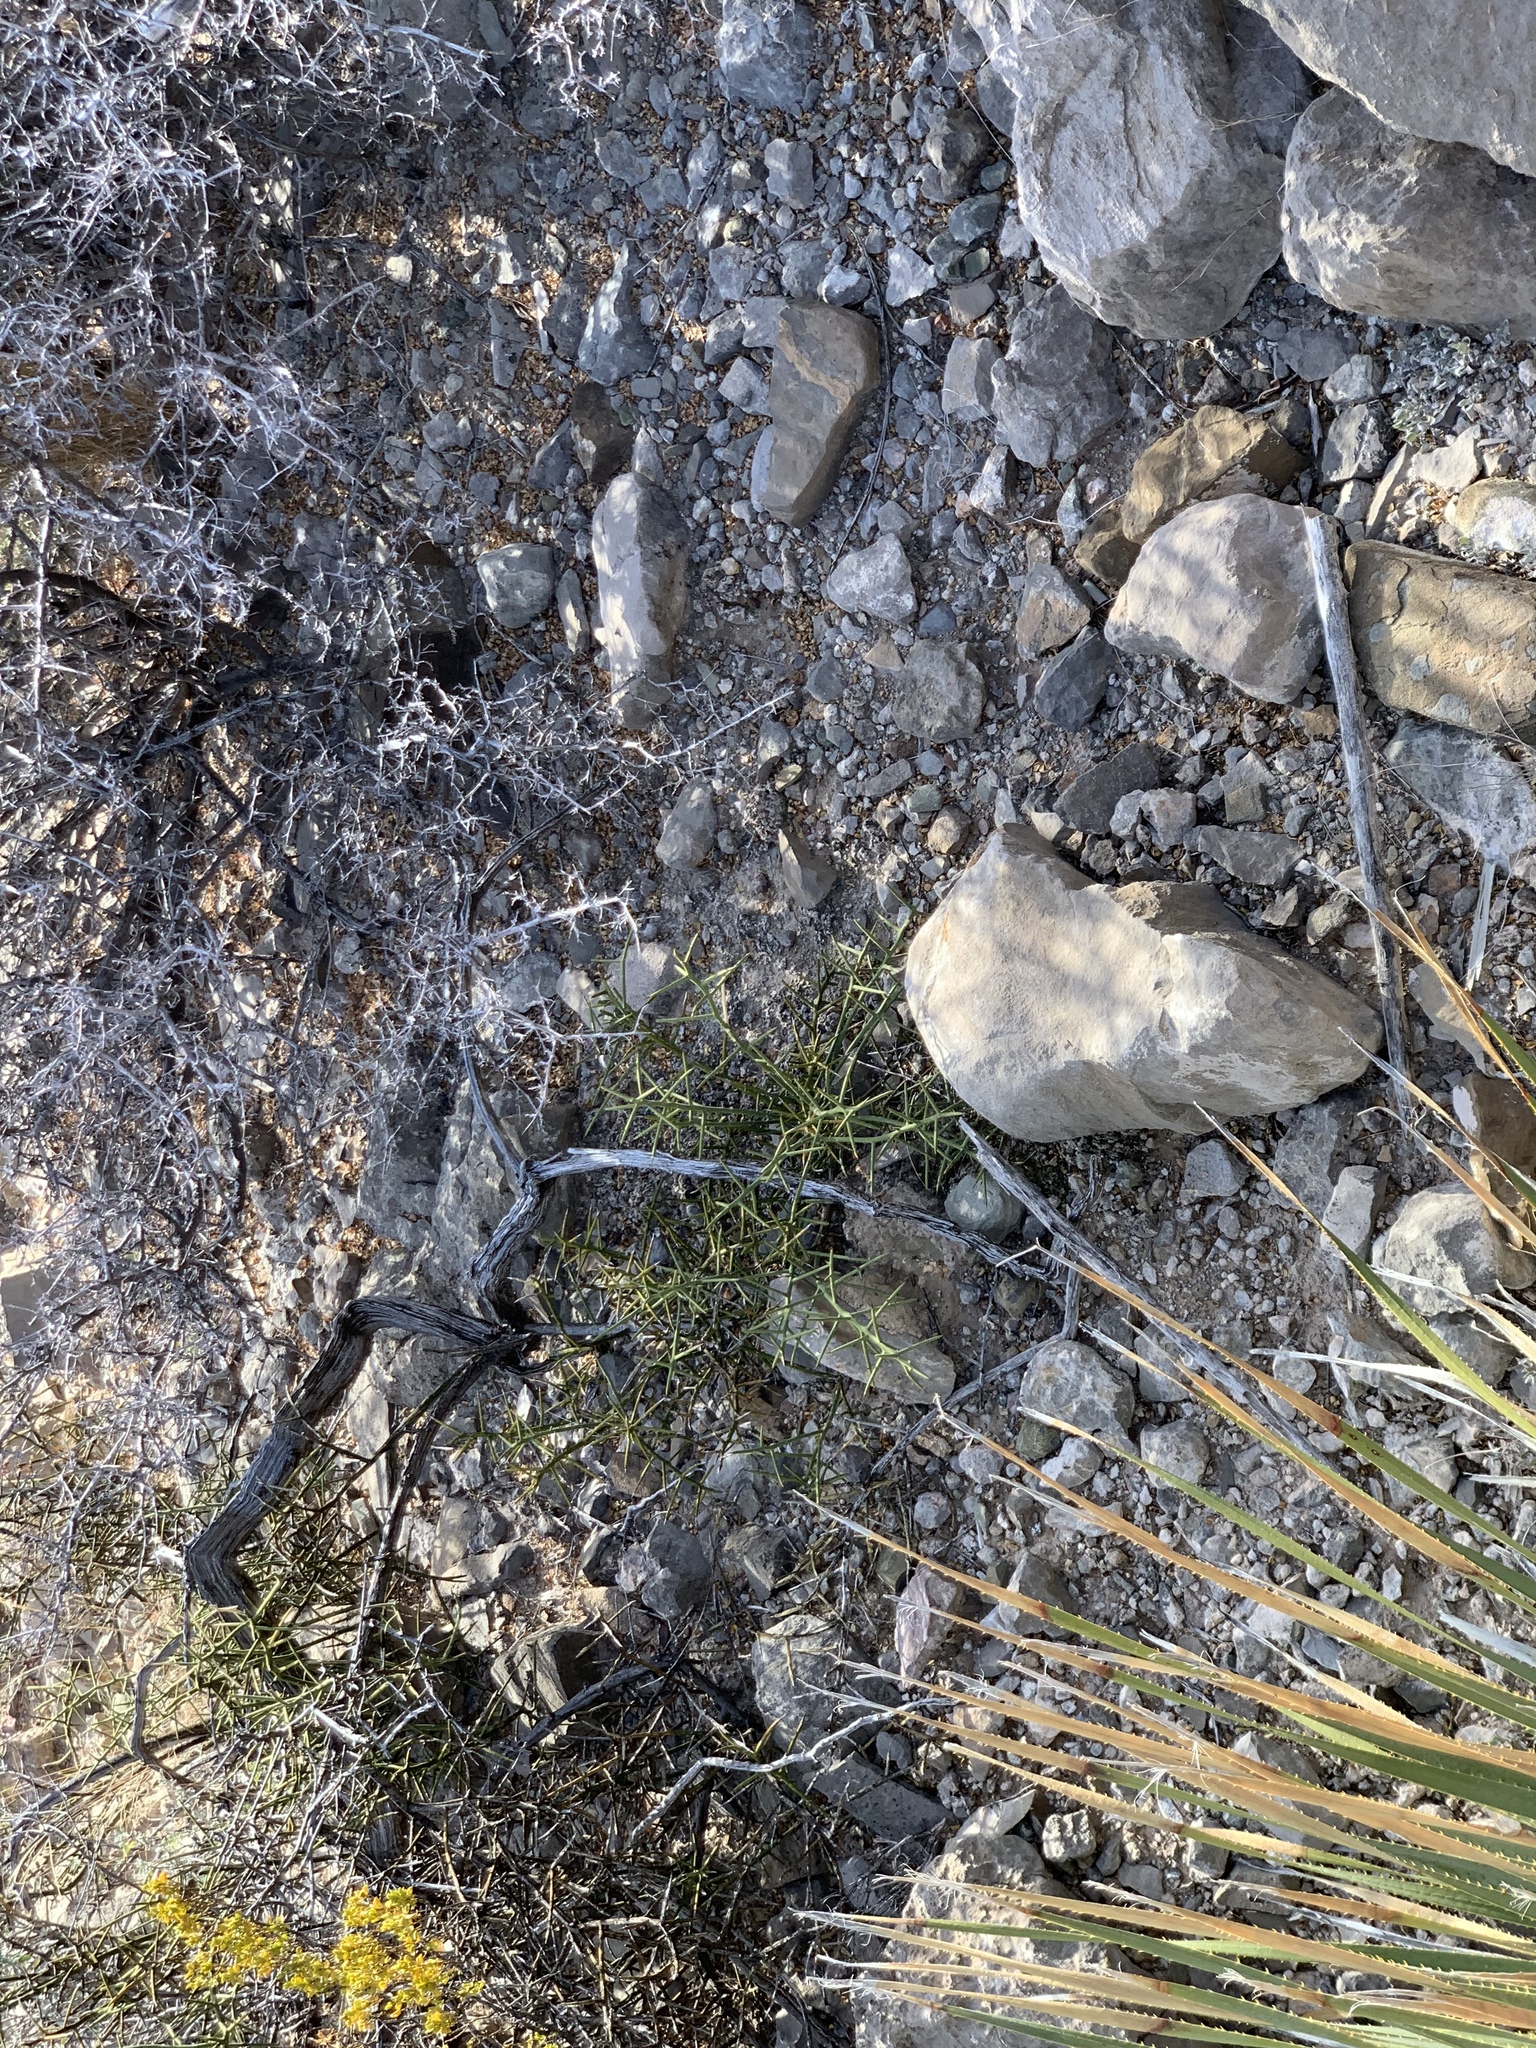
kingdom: Plantae
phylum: Tracheophyta
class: Magnoliopsida
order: Brassicales
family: Koeberliniaceae
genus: Koeberlinia
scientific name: Koeberlinia spinosa
